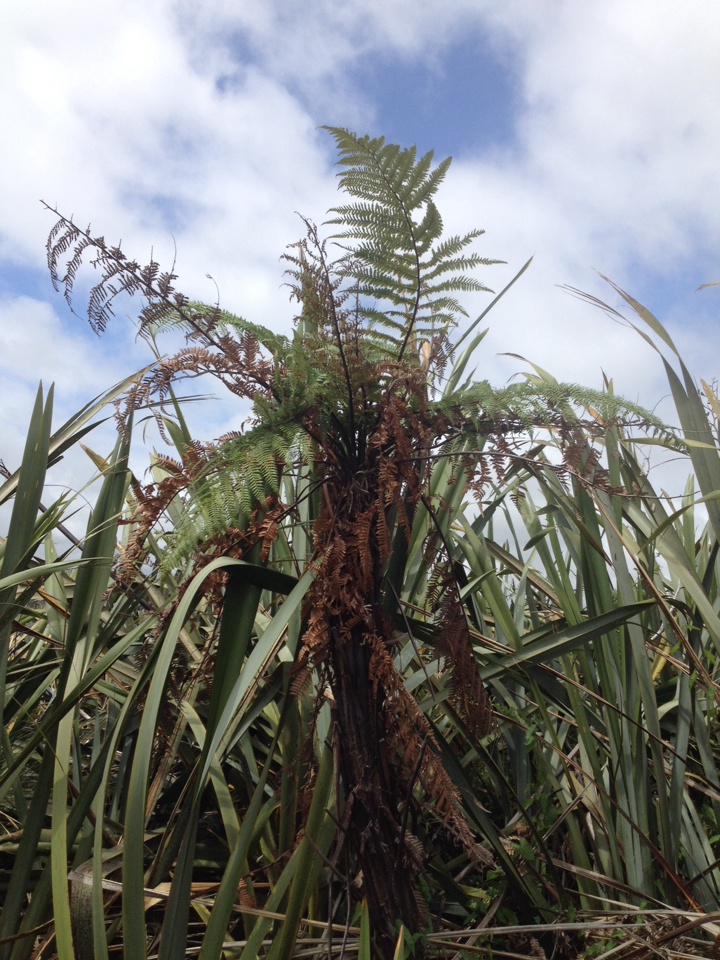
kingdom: Plantae
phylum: Tracheophyta
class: Polypodiopsida
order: Cyatheales
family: Dicksoniaceae
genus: Dicksonia
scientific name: Dicksonia squarrosa
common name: Hard treefern
